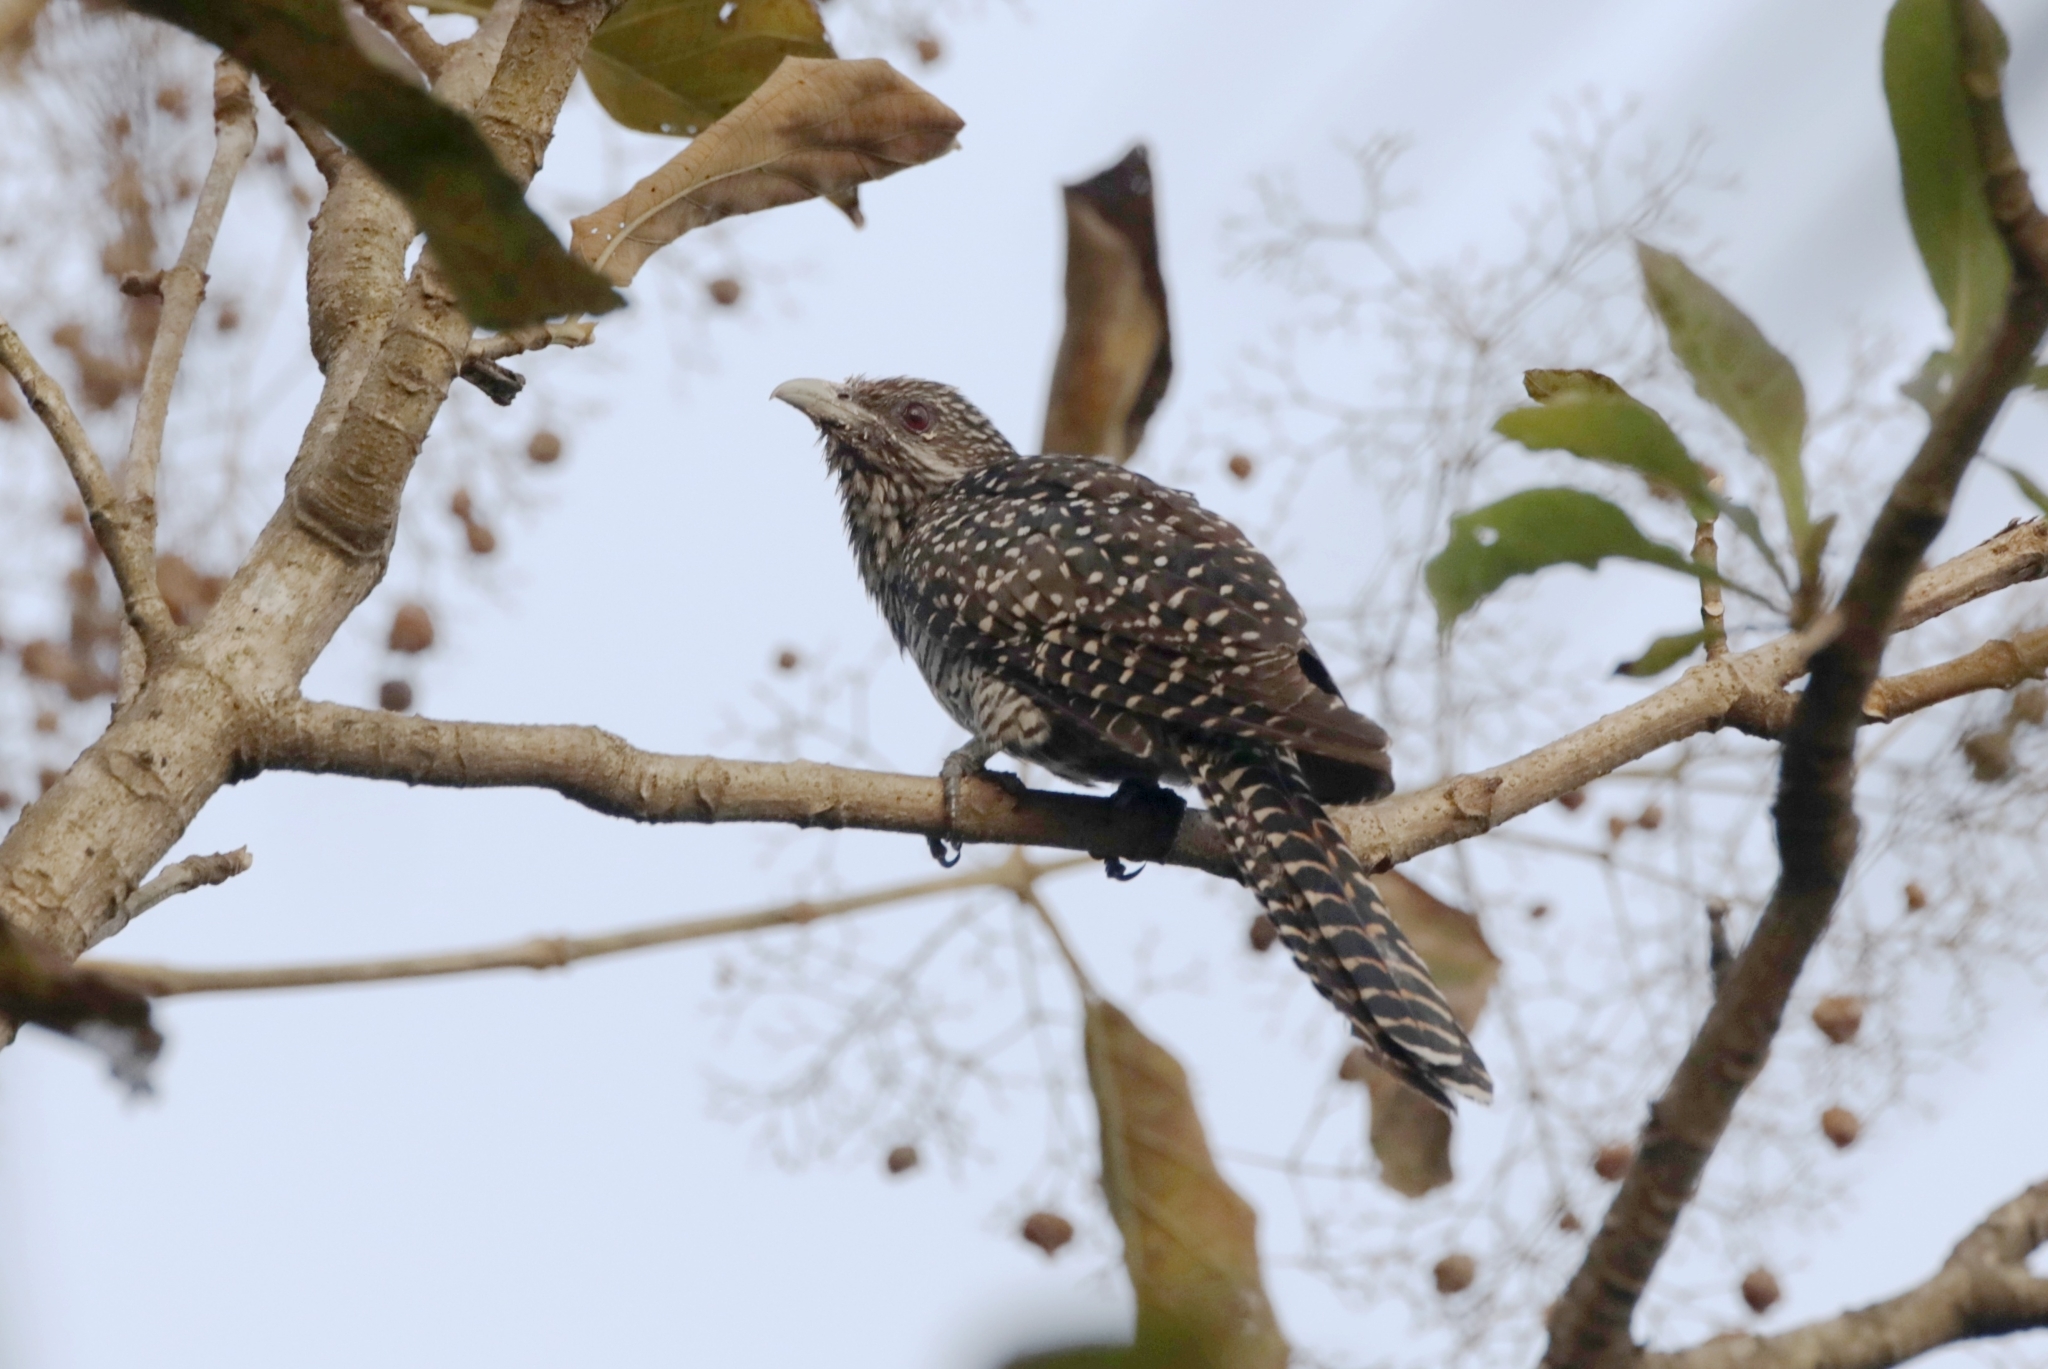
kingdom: Animalia
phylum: Chordata
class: Aves
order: Cuculiformes
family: Cuculidae
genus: Eudynamys
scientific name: Eudynamys scolopaceus
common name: Asian koel
